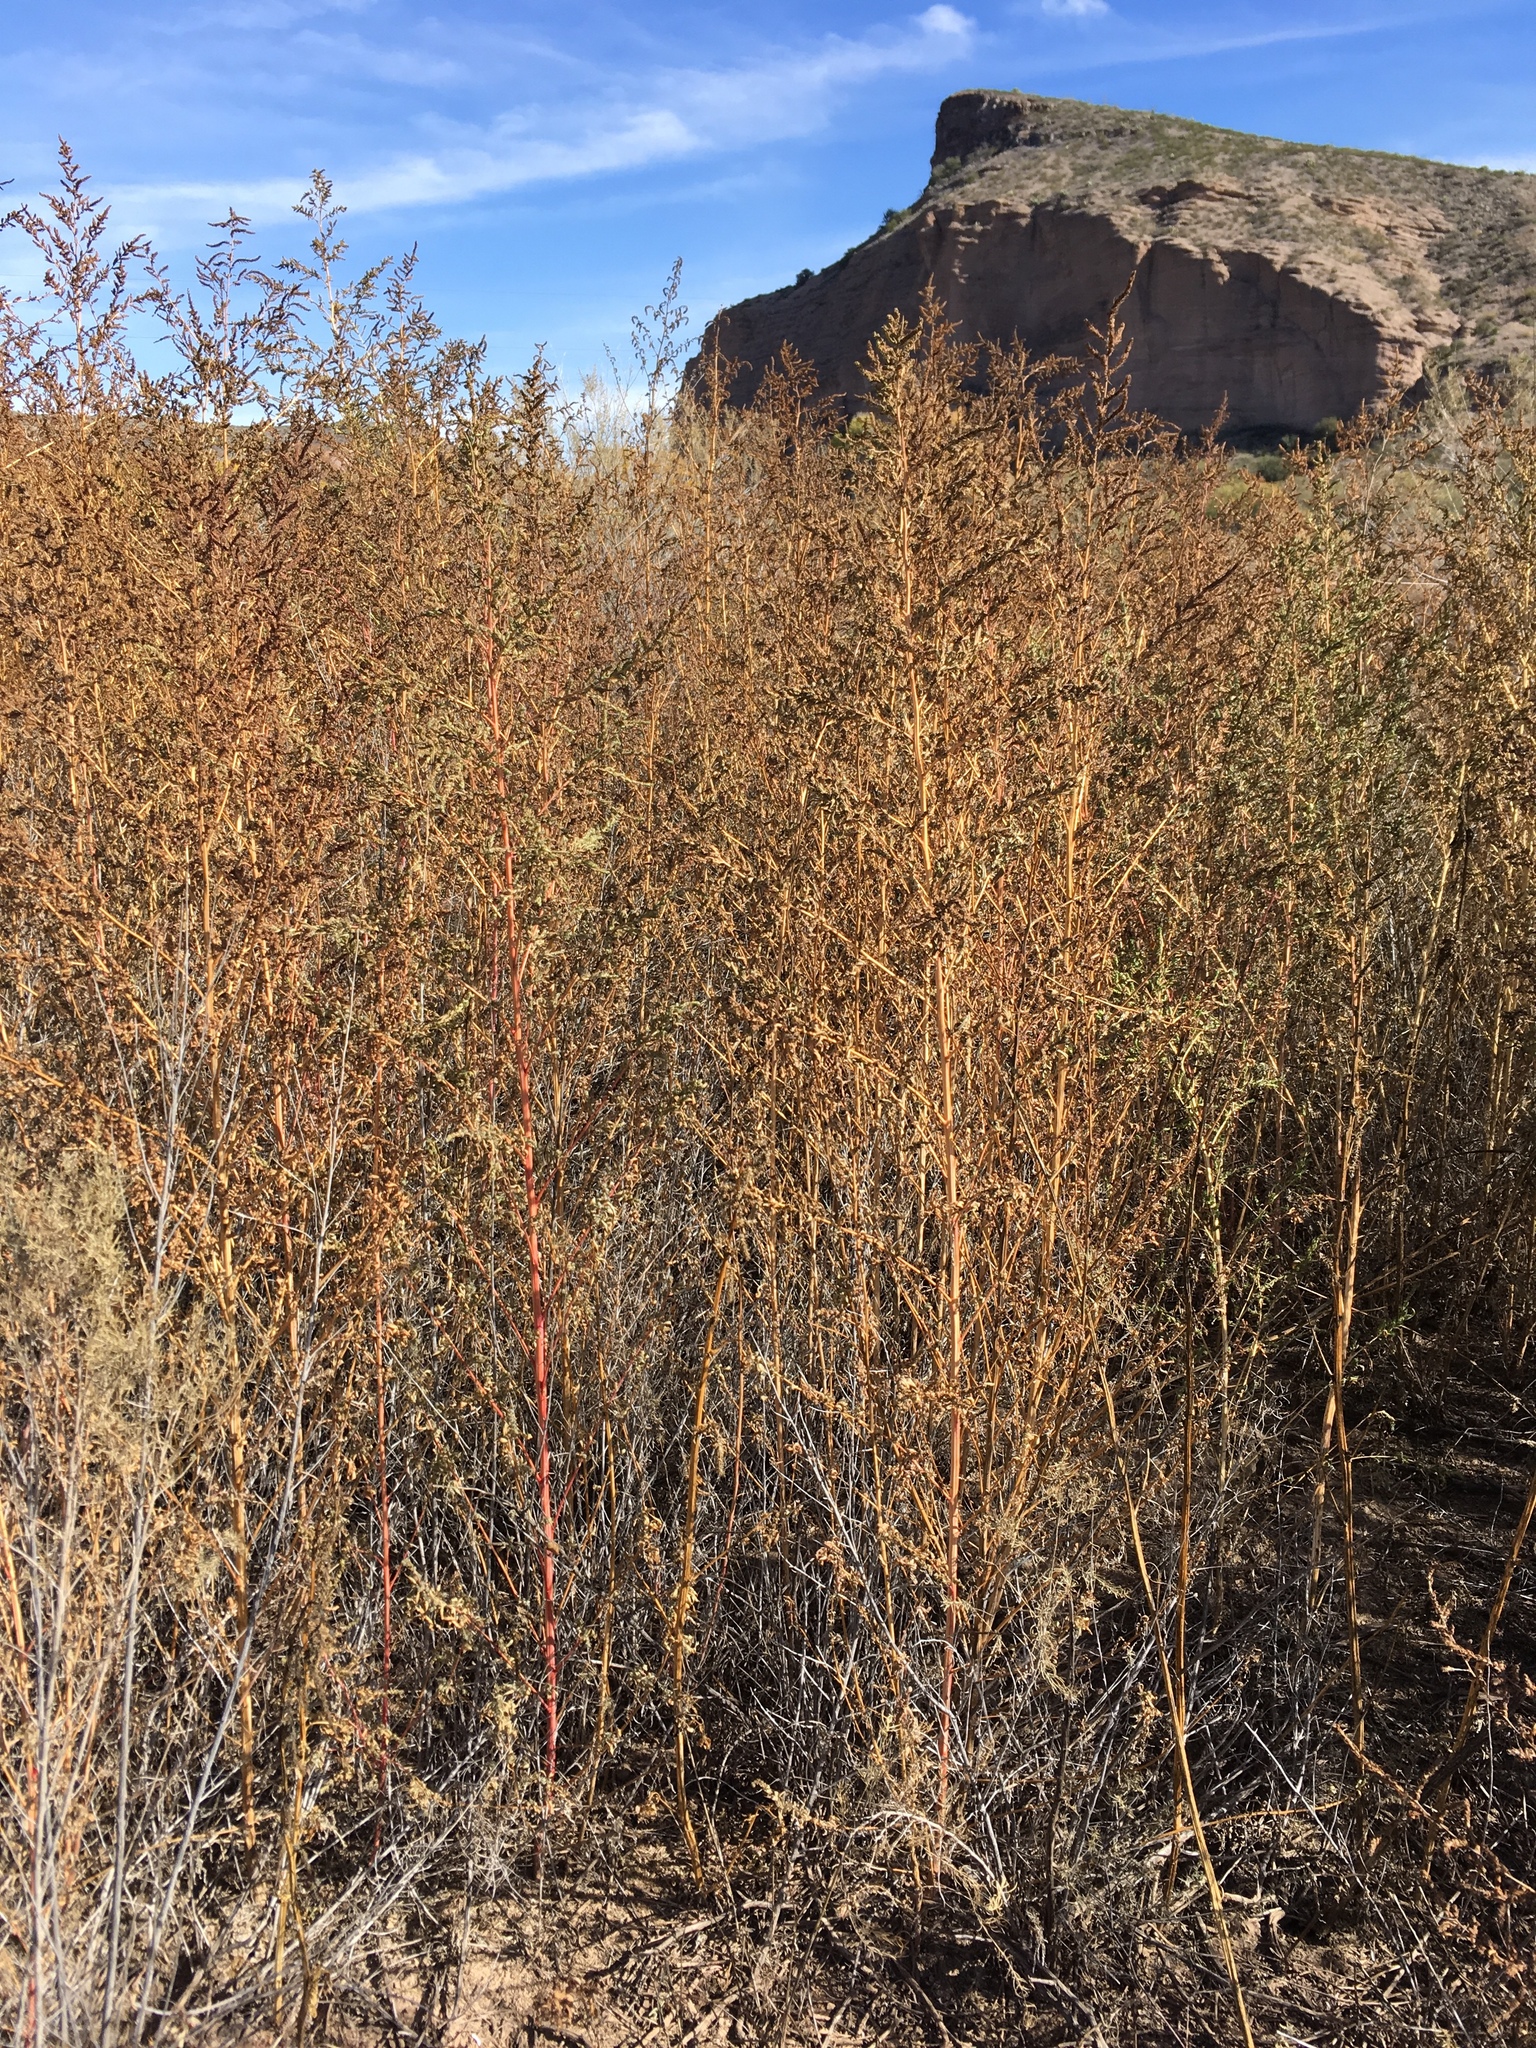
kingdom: Plantae
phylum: Tracheophyta
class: Magnoliopsida
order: Caryophyllales
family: Amaranthaceae
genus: Bassia
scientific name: Bassia scoparia
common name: Belvedere
